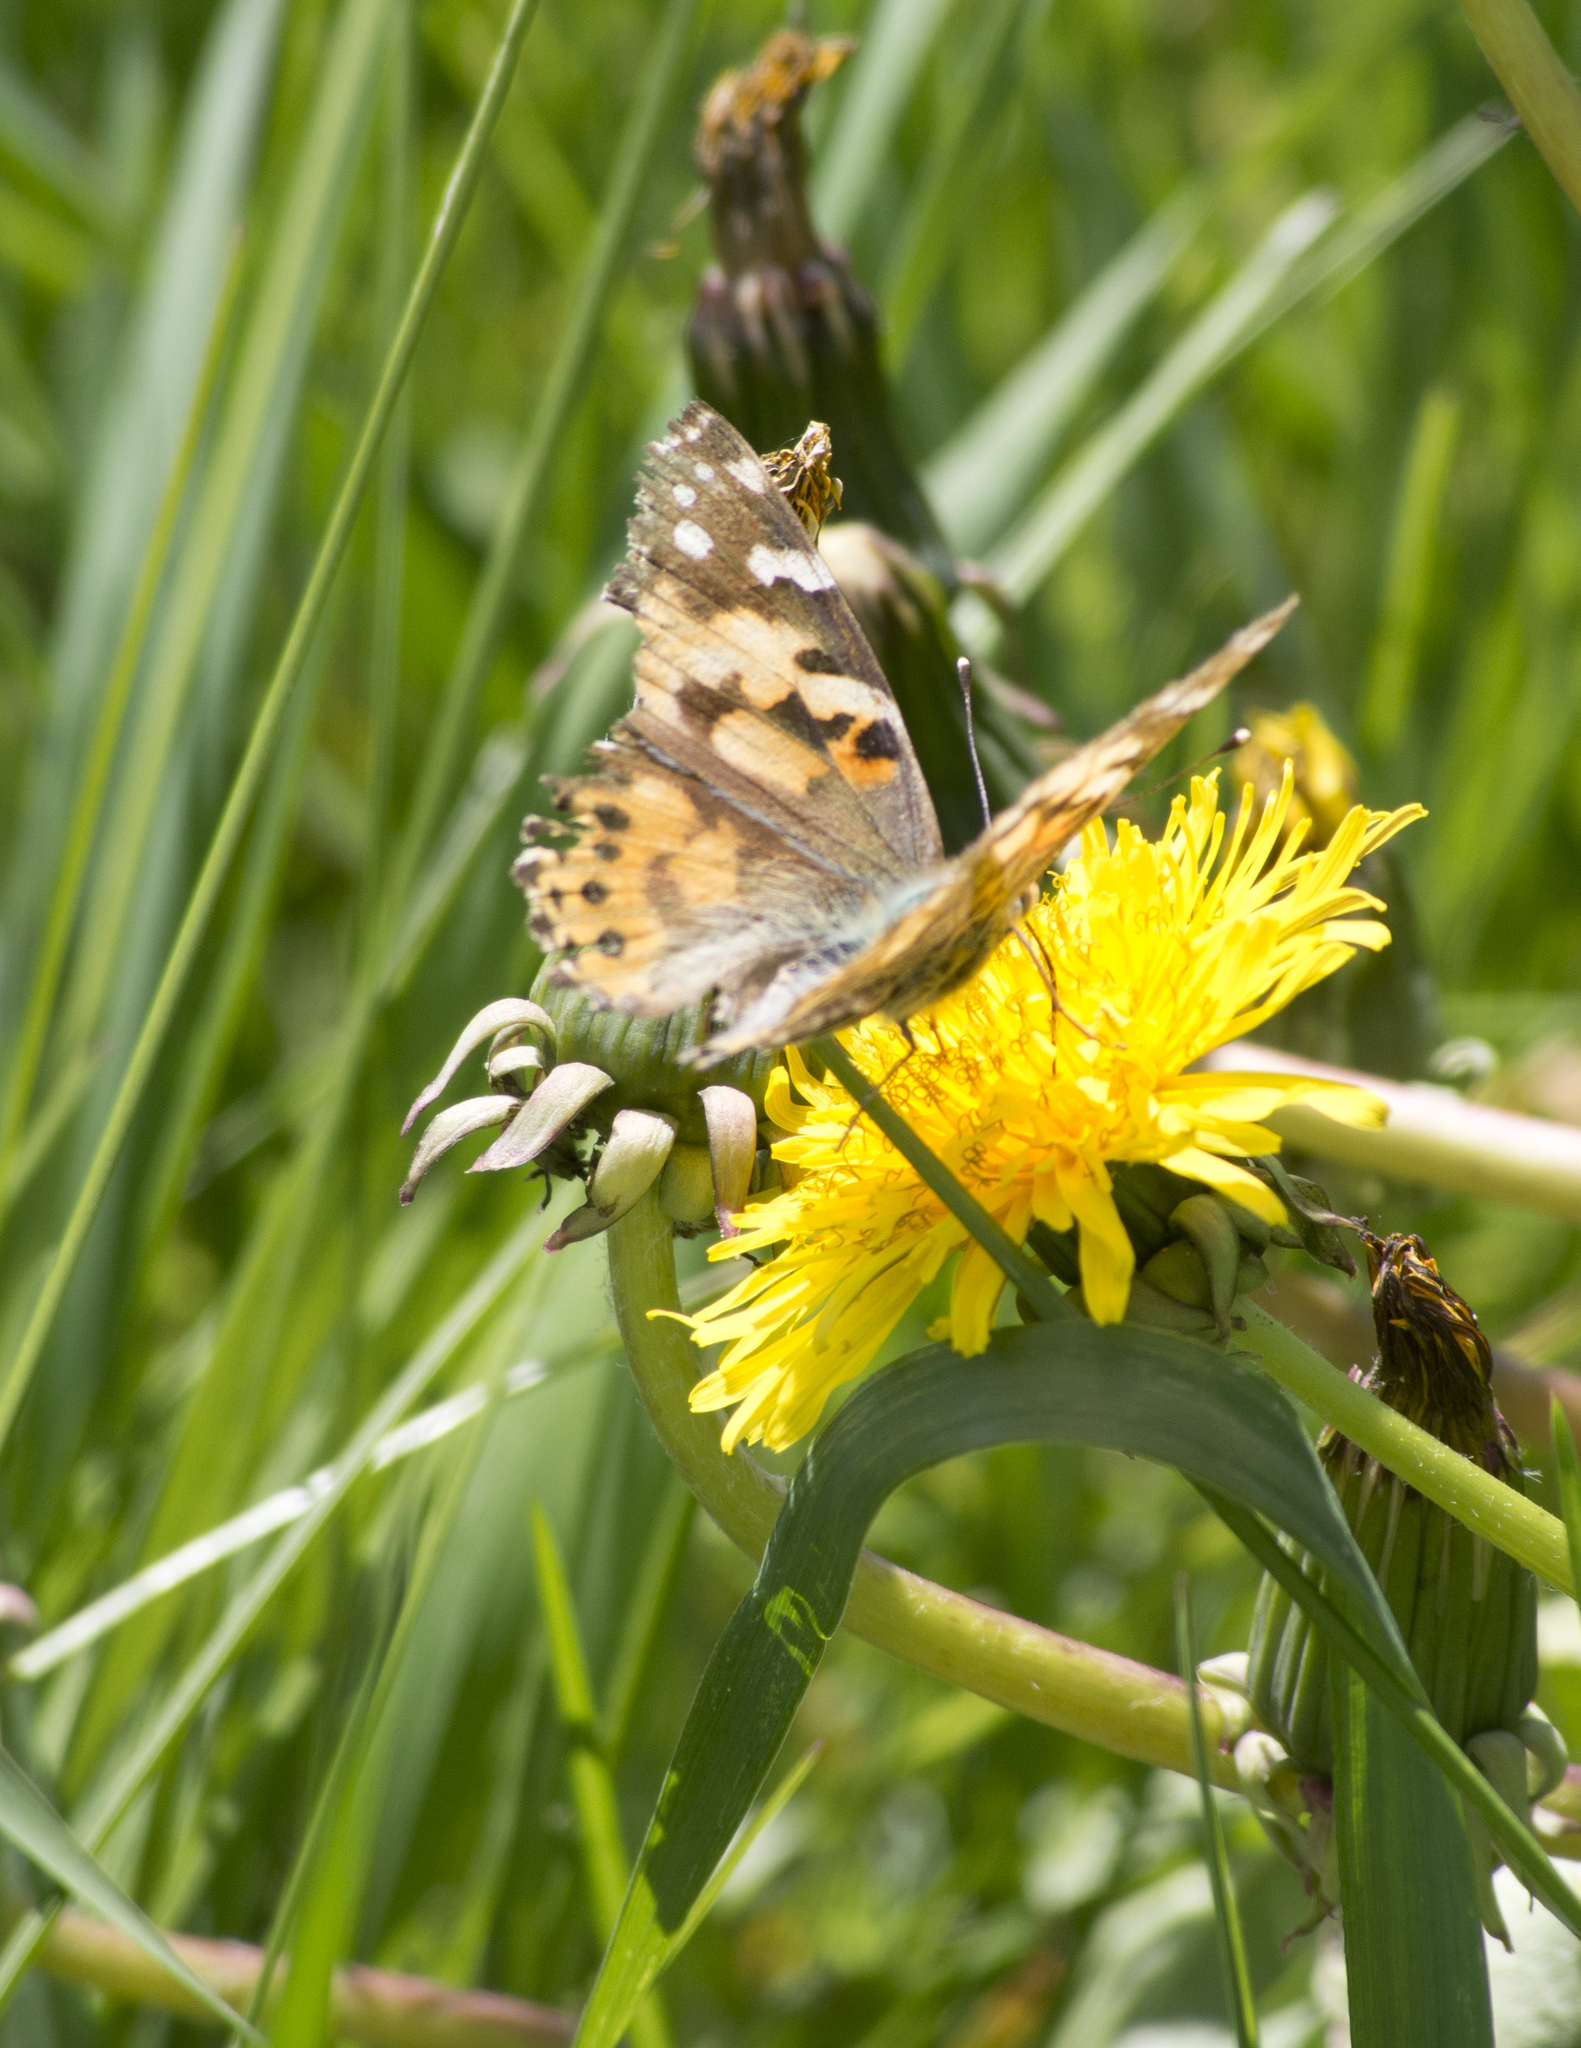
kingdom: Animalia
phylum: Arthropoda
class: Insecta
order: Lepidoptera
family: Nymphalidae
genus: Vanessa
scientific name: Vanessa cardui
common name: Painted lady
